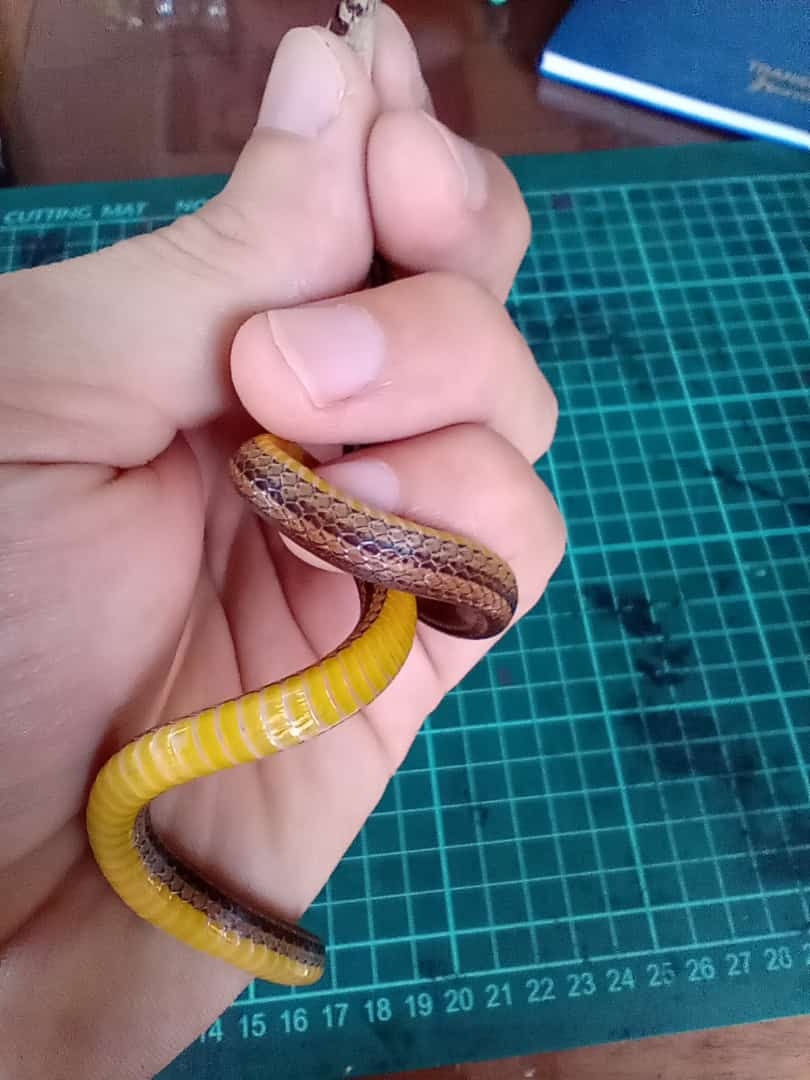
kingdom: Animalia
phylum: Chordata
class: Squamata
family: Colubridae
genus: Tantilla
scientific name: Tantilla melanocephala
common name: Black-headed snake
